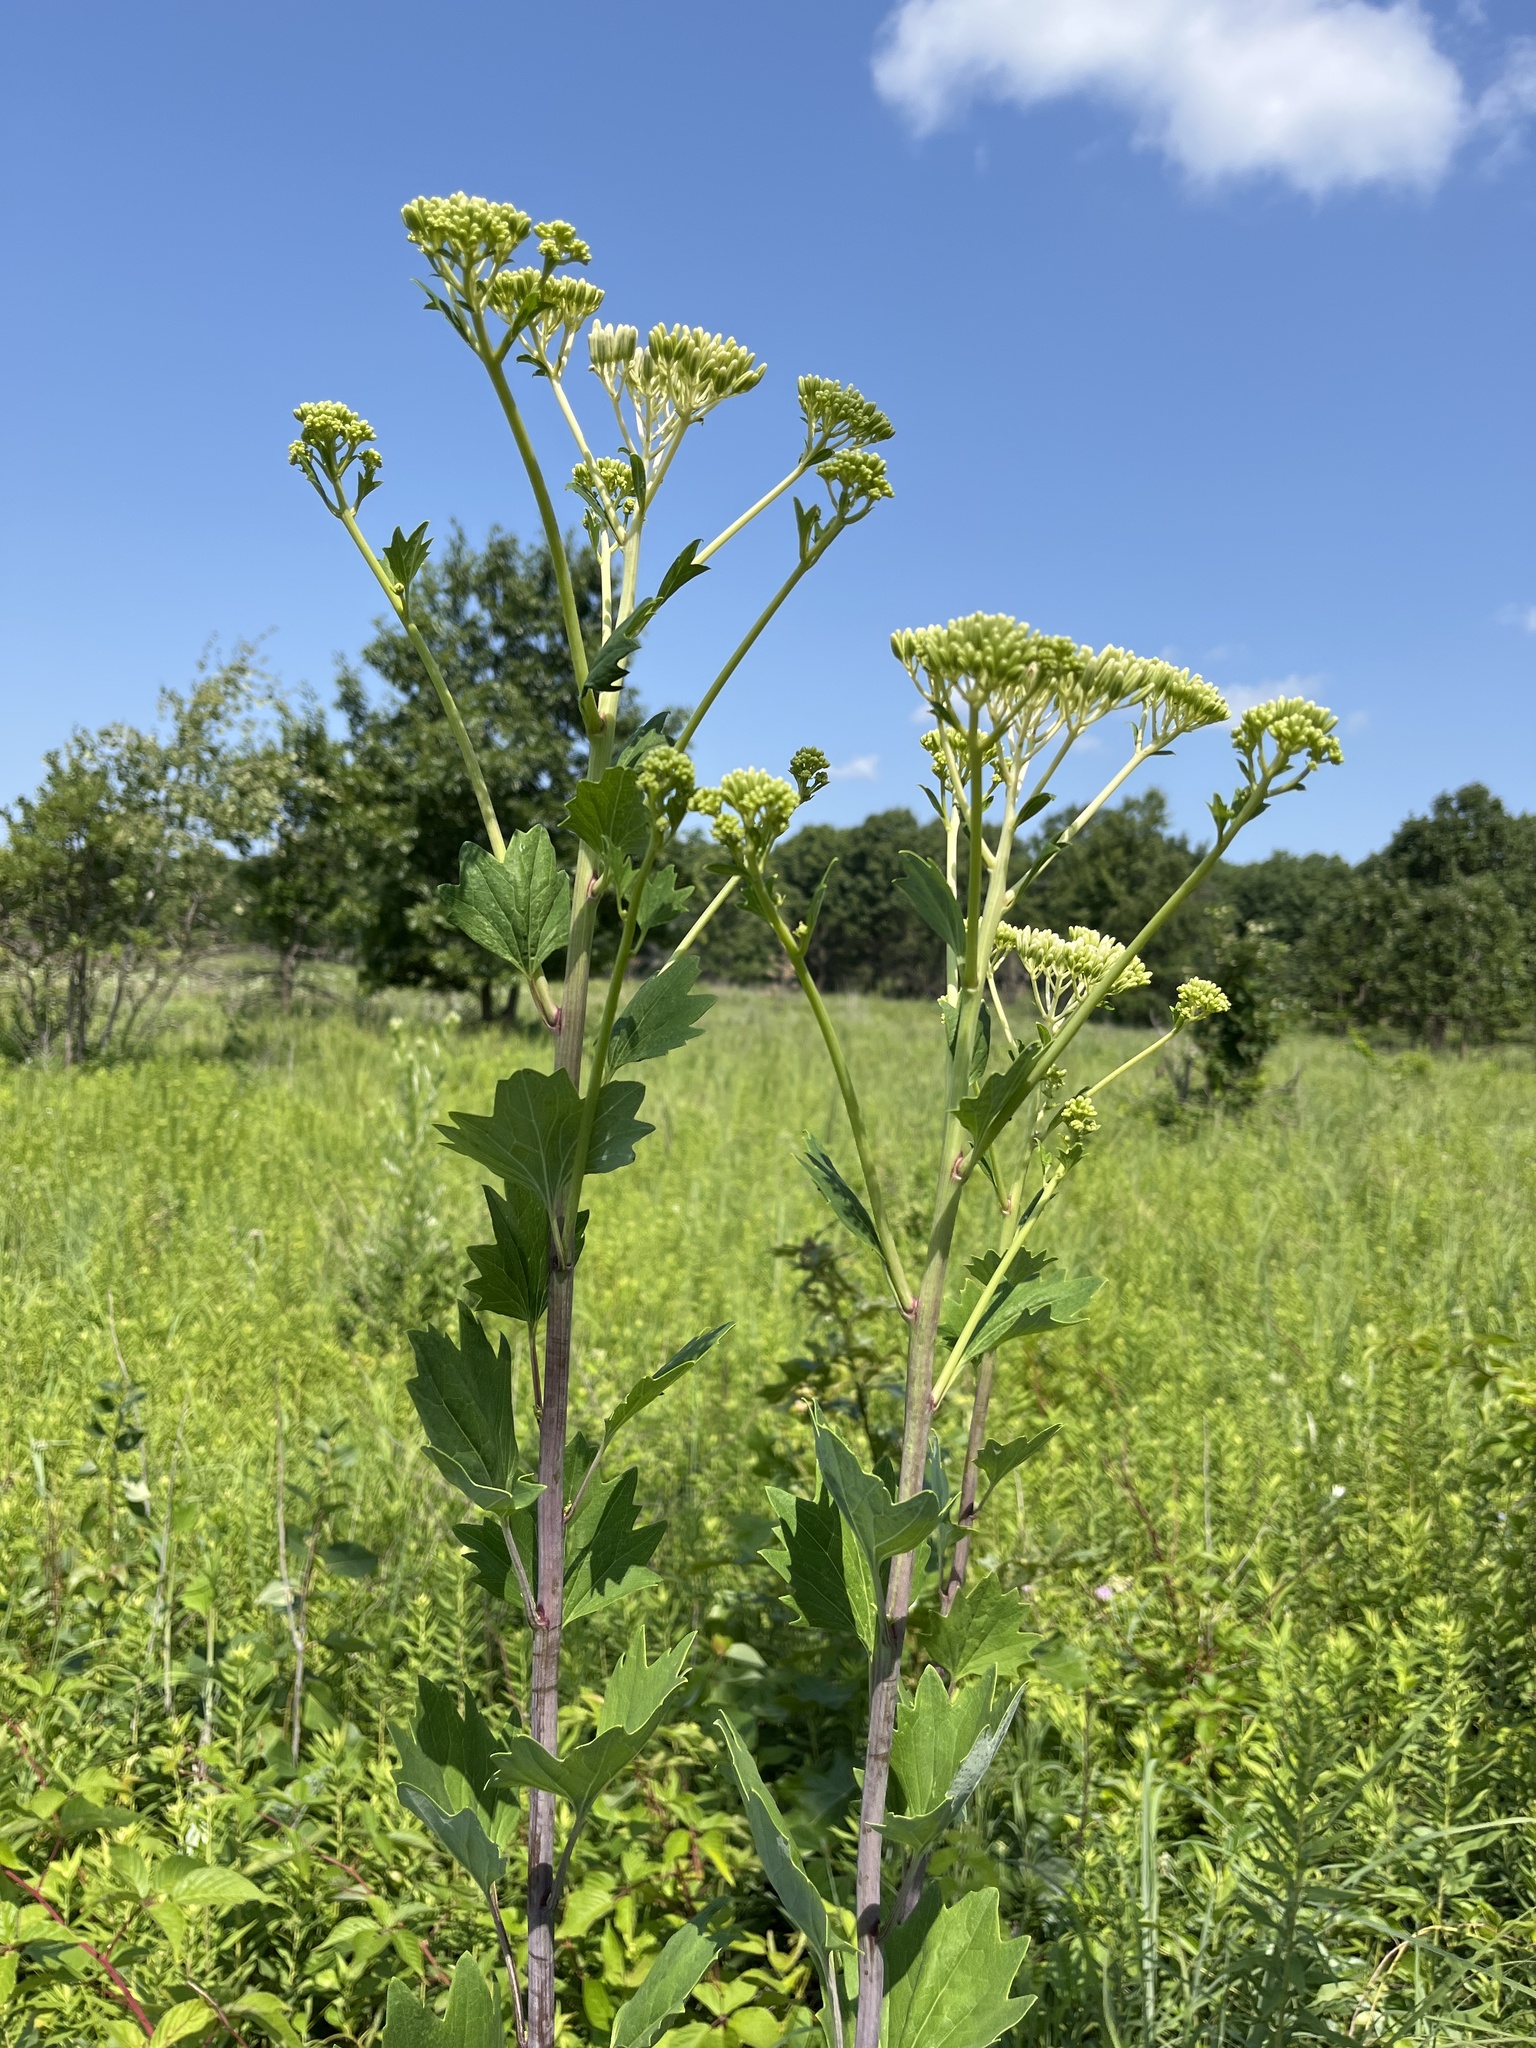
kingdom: Plantae
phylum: Tracheophyta
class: Magnoliopsida
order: Asterales
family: Asteraceae
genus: Arnoglossum
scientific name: Arnoglossum atriplicifolium
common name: Pale indian-plantain
